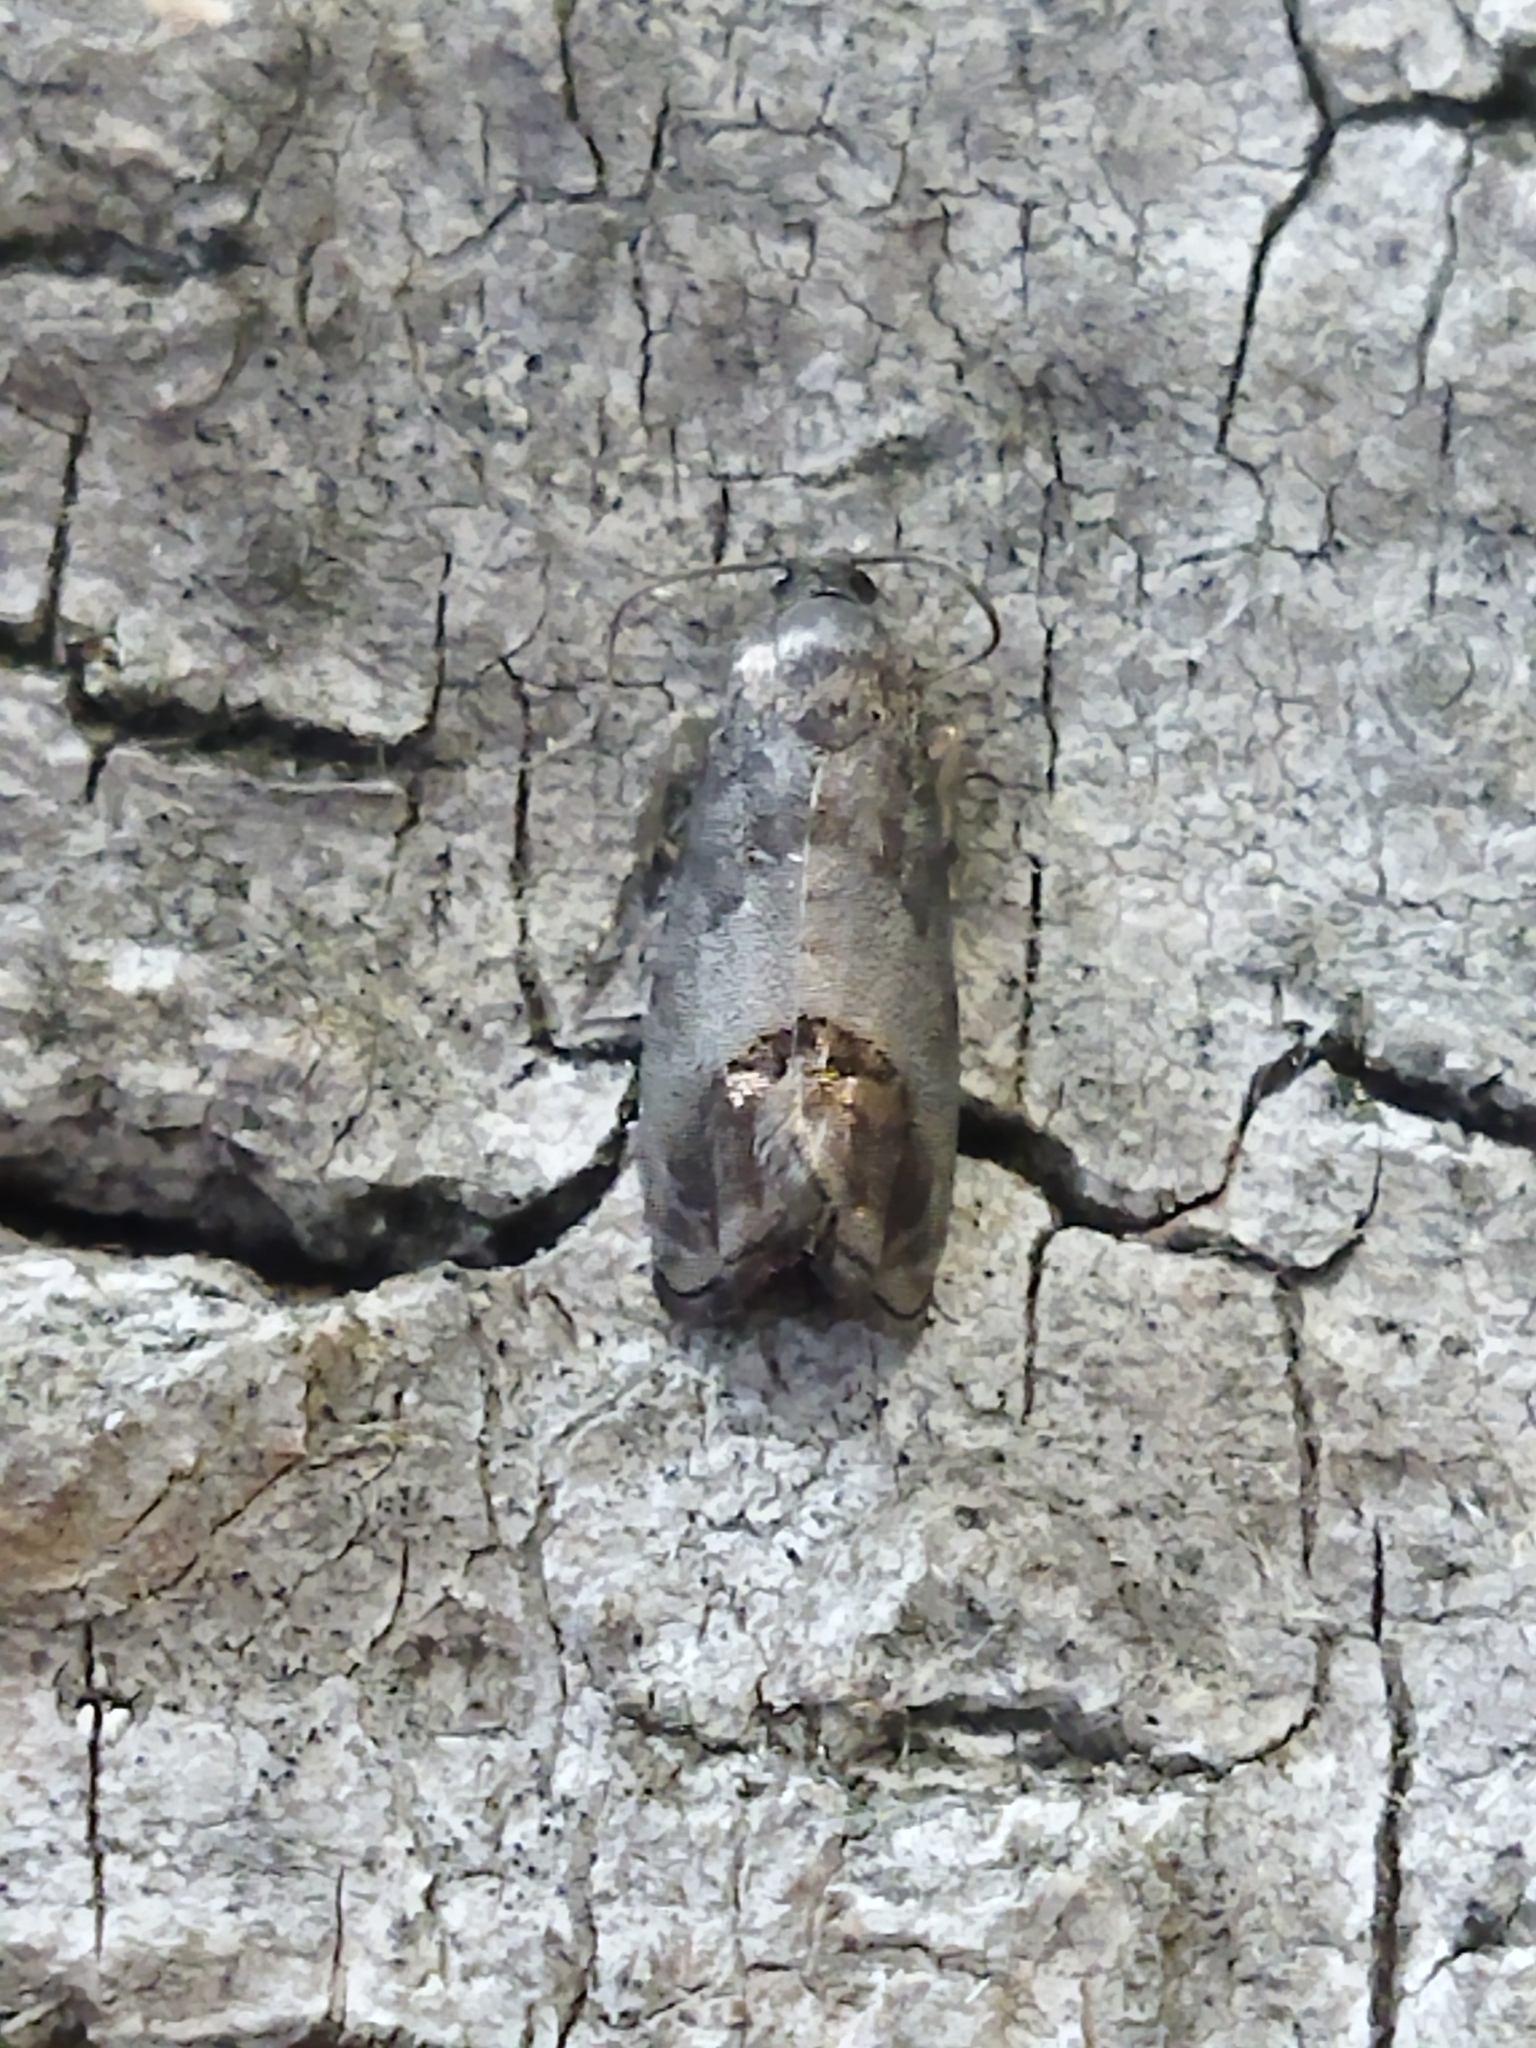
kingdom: Animalia
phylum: Arthropoda
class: Insecta
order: Lepidoptera
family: Tortricidae
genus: Cydia
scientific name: Cydia pomonella
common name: Codling moth
